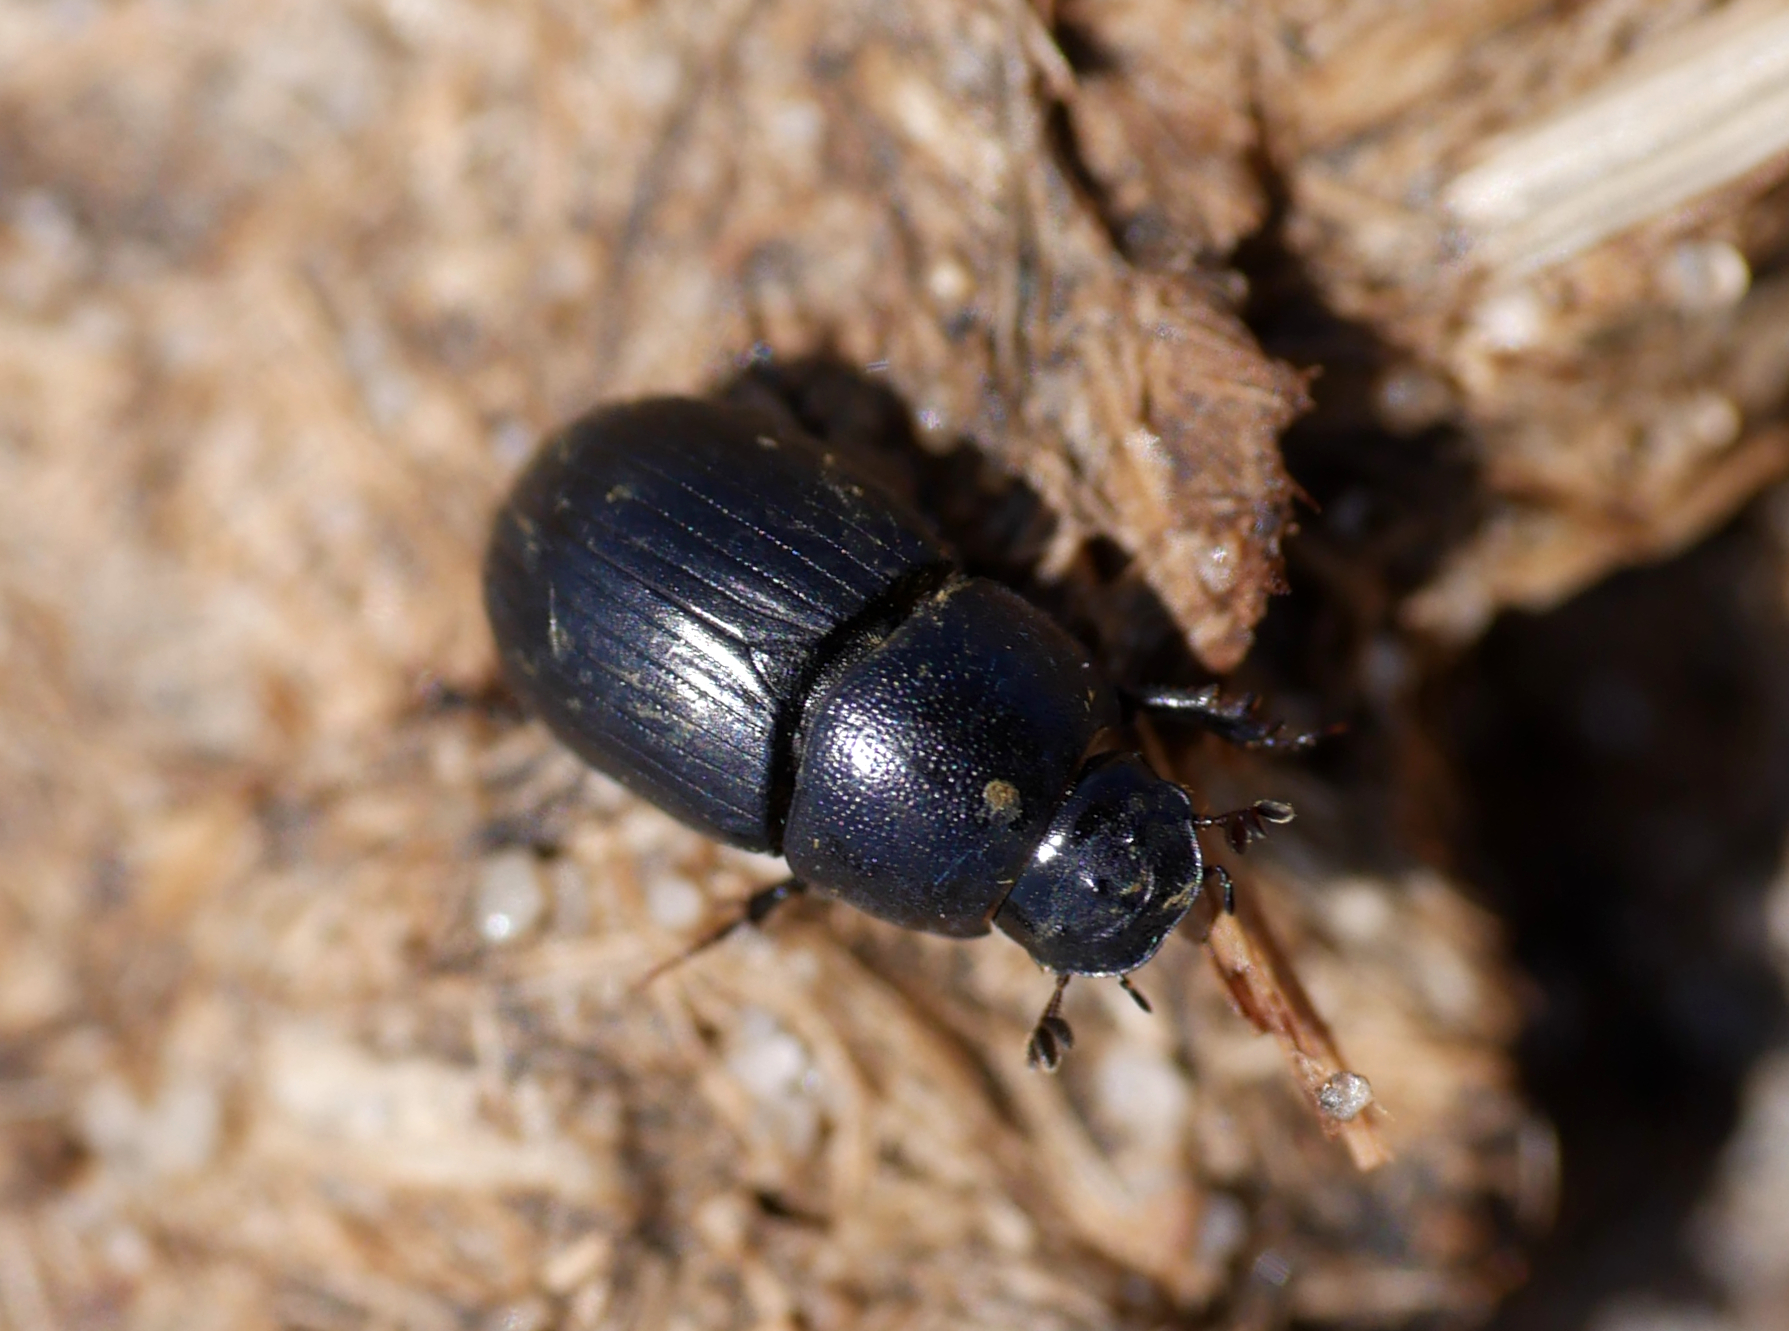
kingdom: Animalia
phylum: Arthropoda
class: Insecta
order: Coleoptera
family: Scarabaeidae
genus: Agrilinus
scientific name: Agrilinus ater
